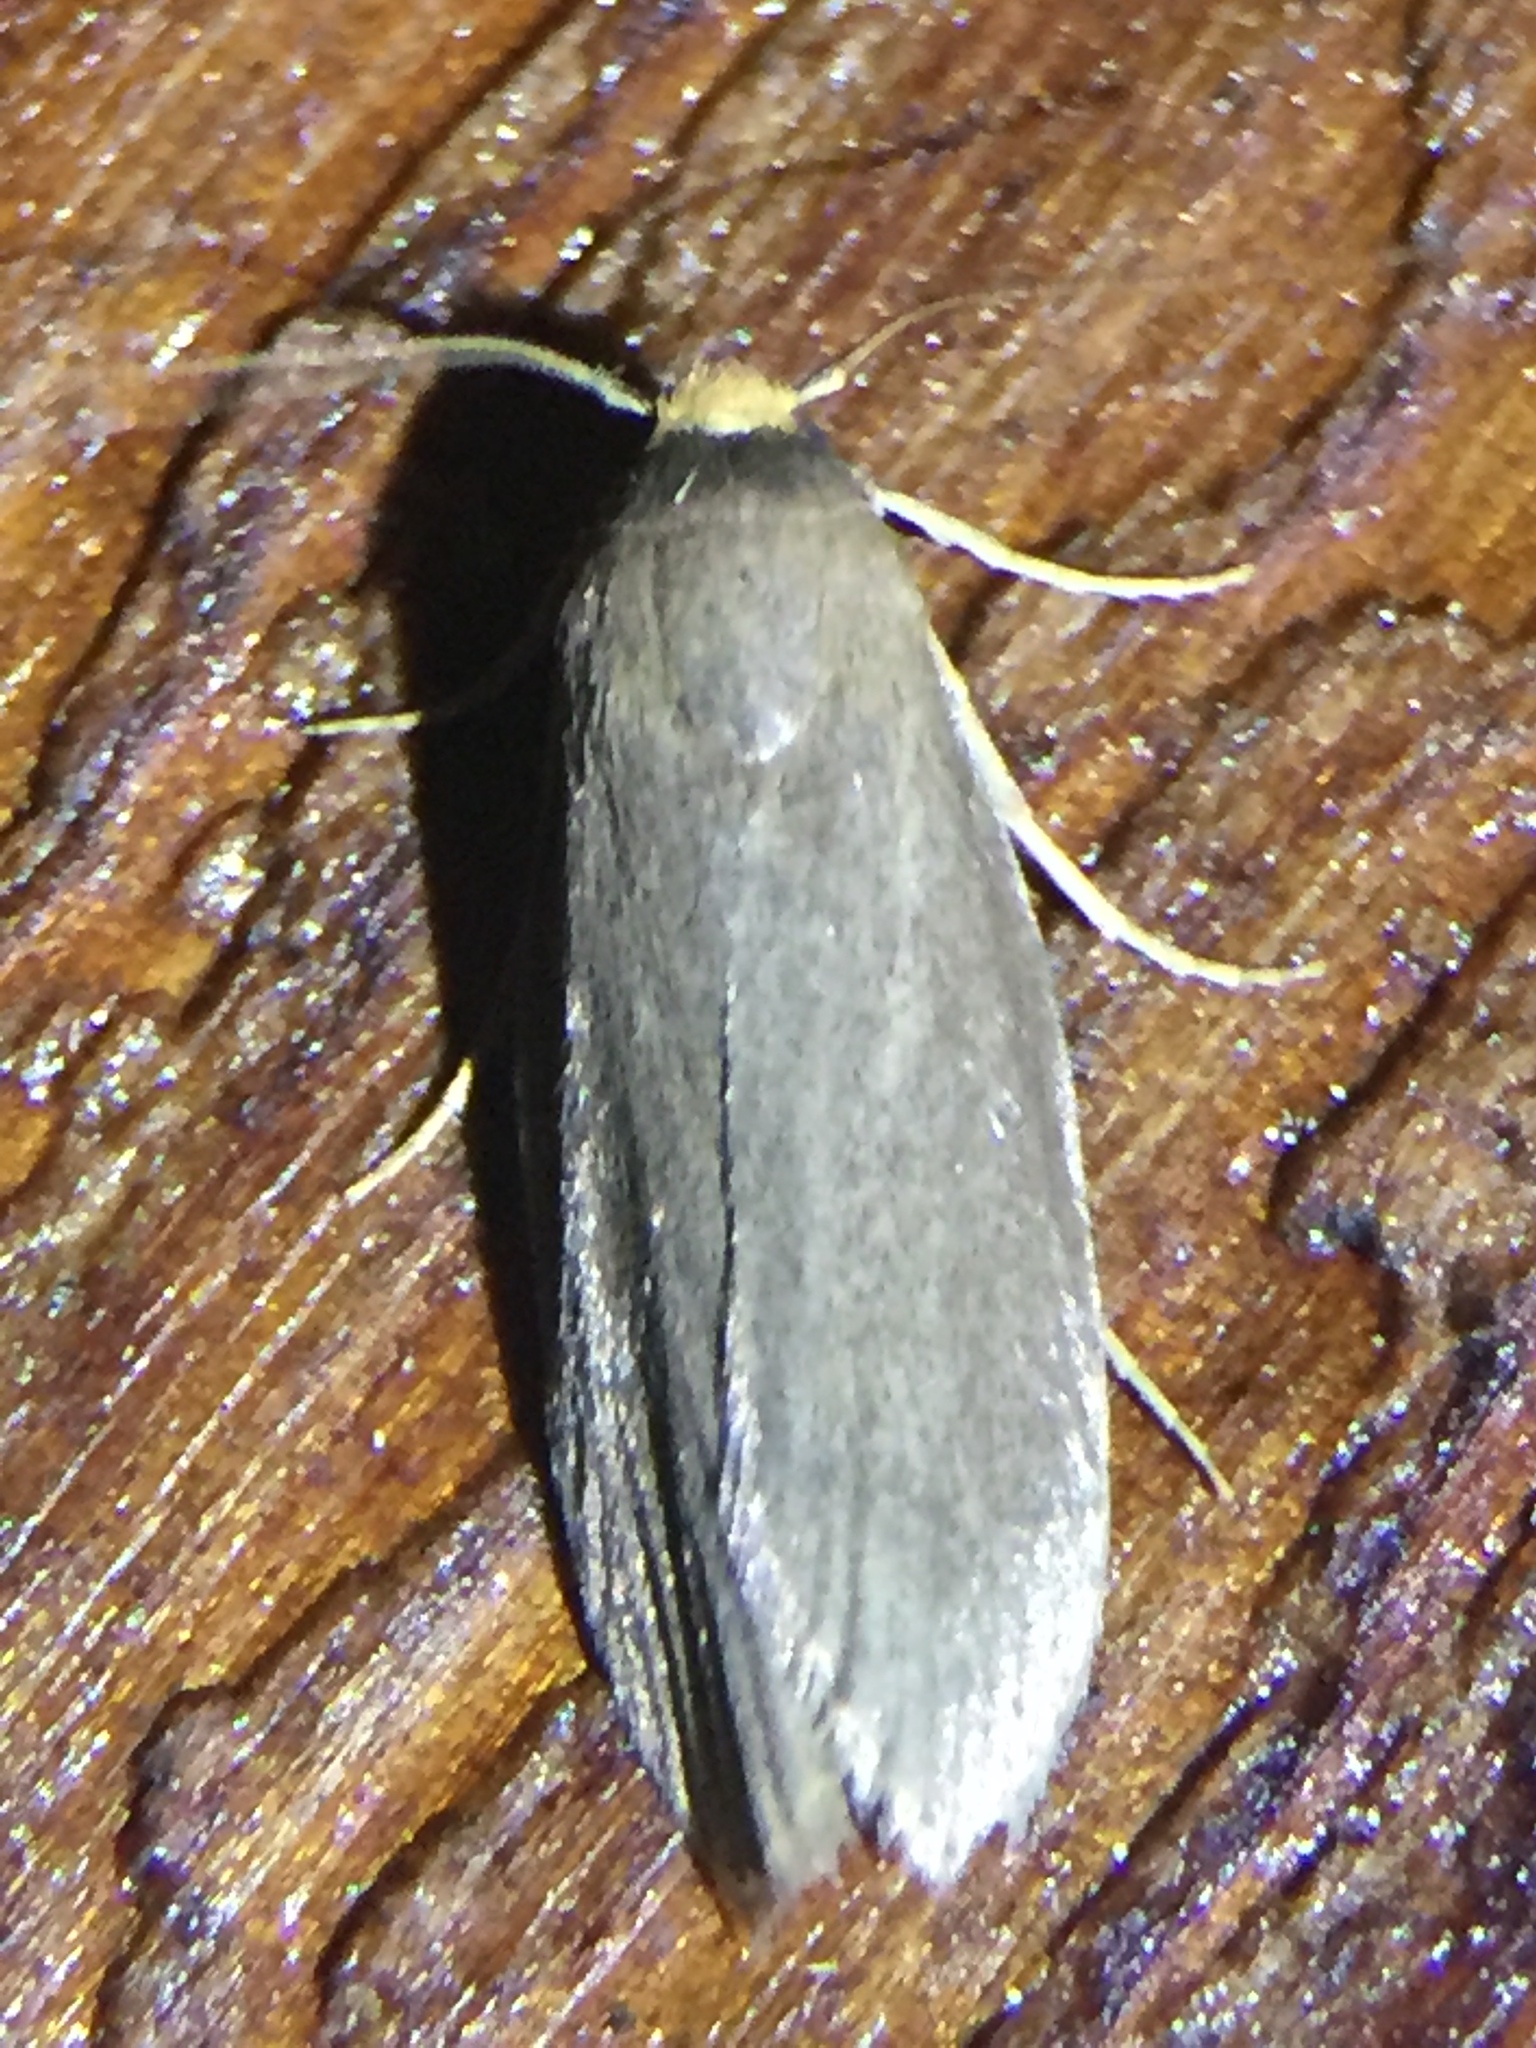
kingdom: Animalia
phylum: Arthropoda
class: Insecta
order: Lepidoptera
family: Pyralidae
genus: Achroia
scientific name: Achroia grisella
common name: Lesser wax moth
